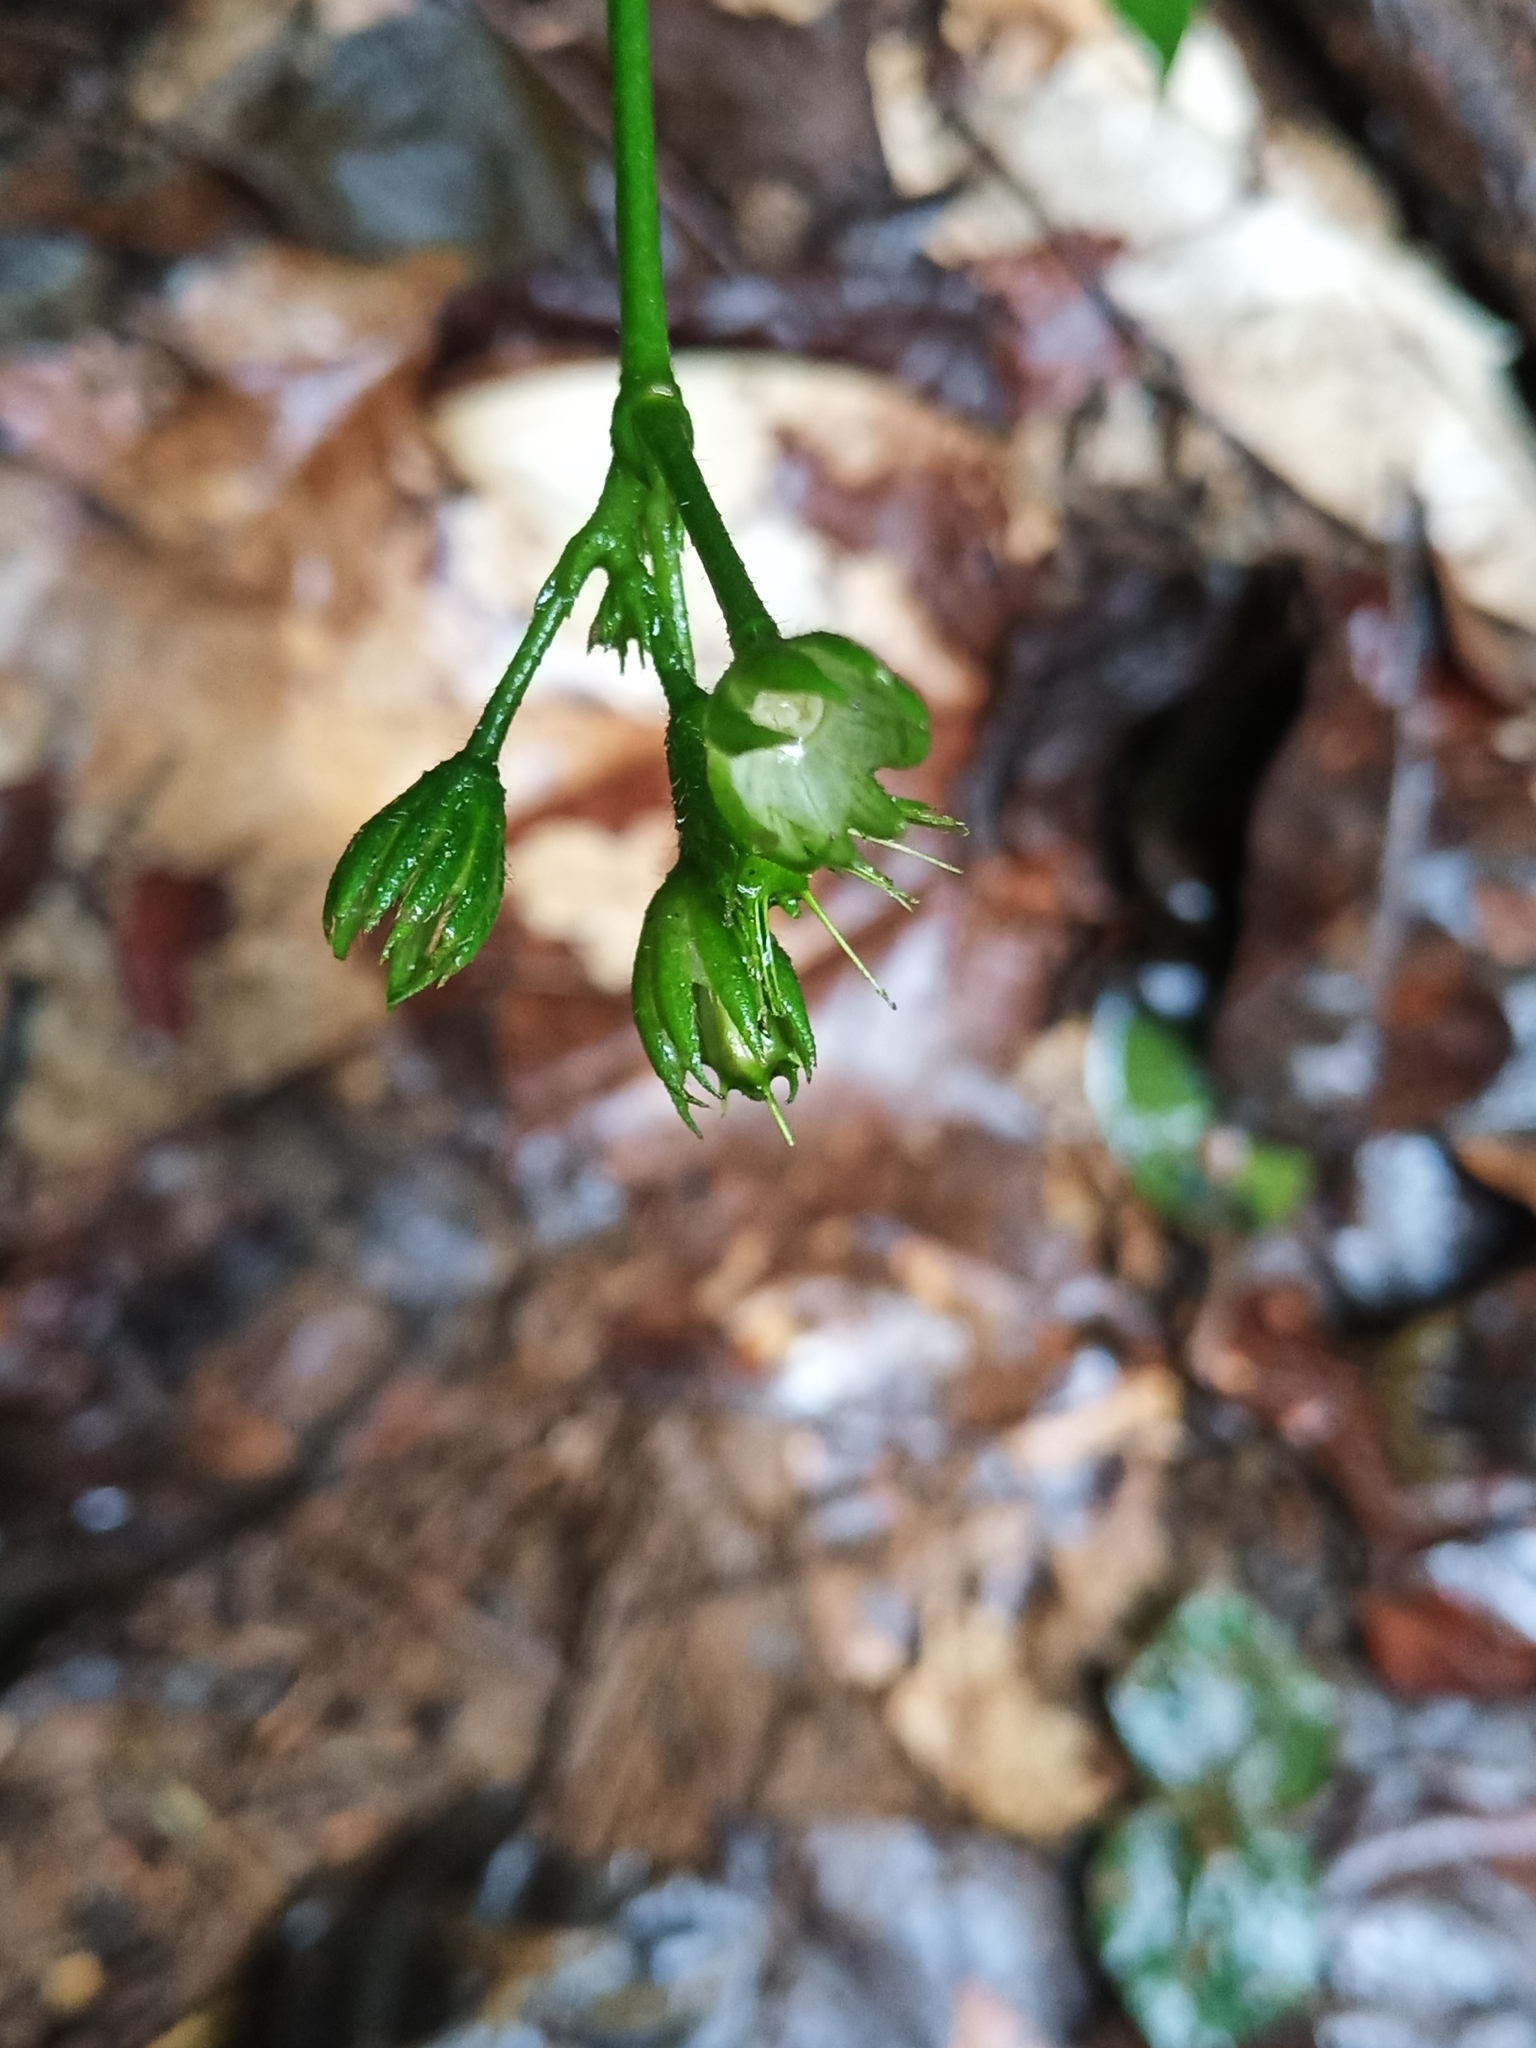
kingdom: Plantae
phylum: Tracheophyta
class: Magnoliopsida
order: Malvales
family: Malvaceae
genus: Pavonia
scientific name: Pavonia castaneifolia
